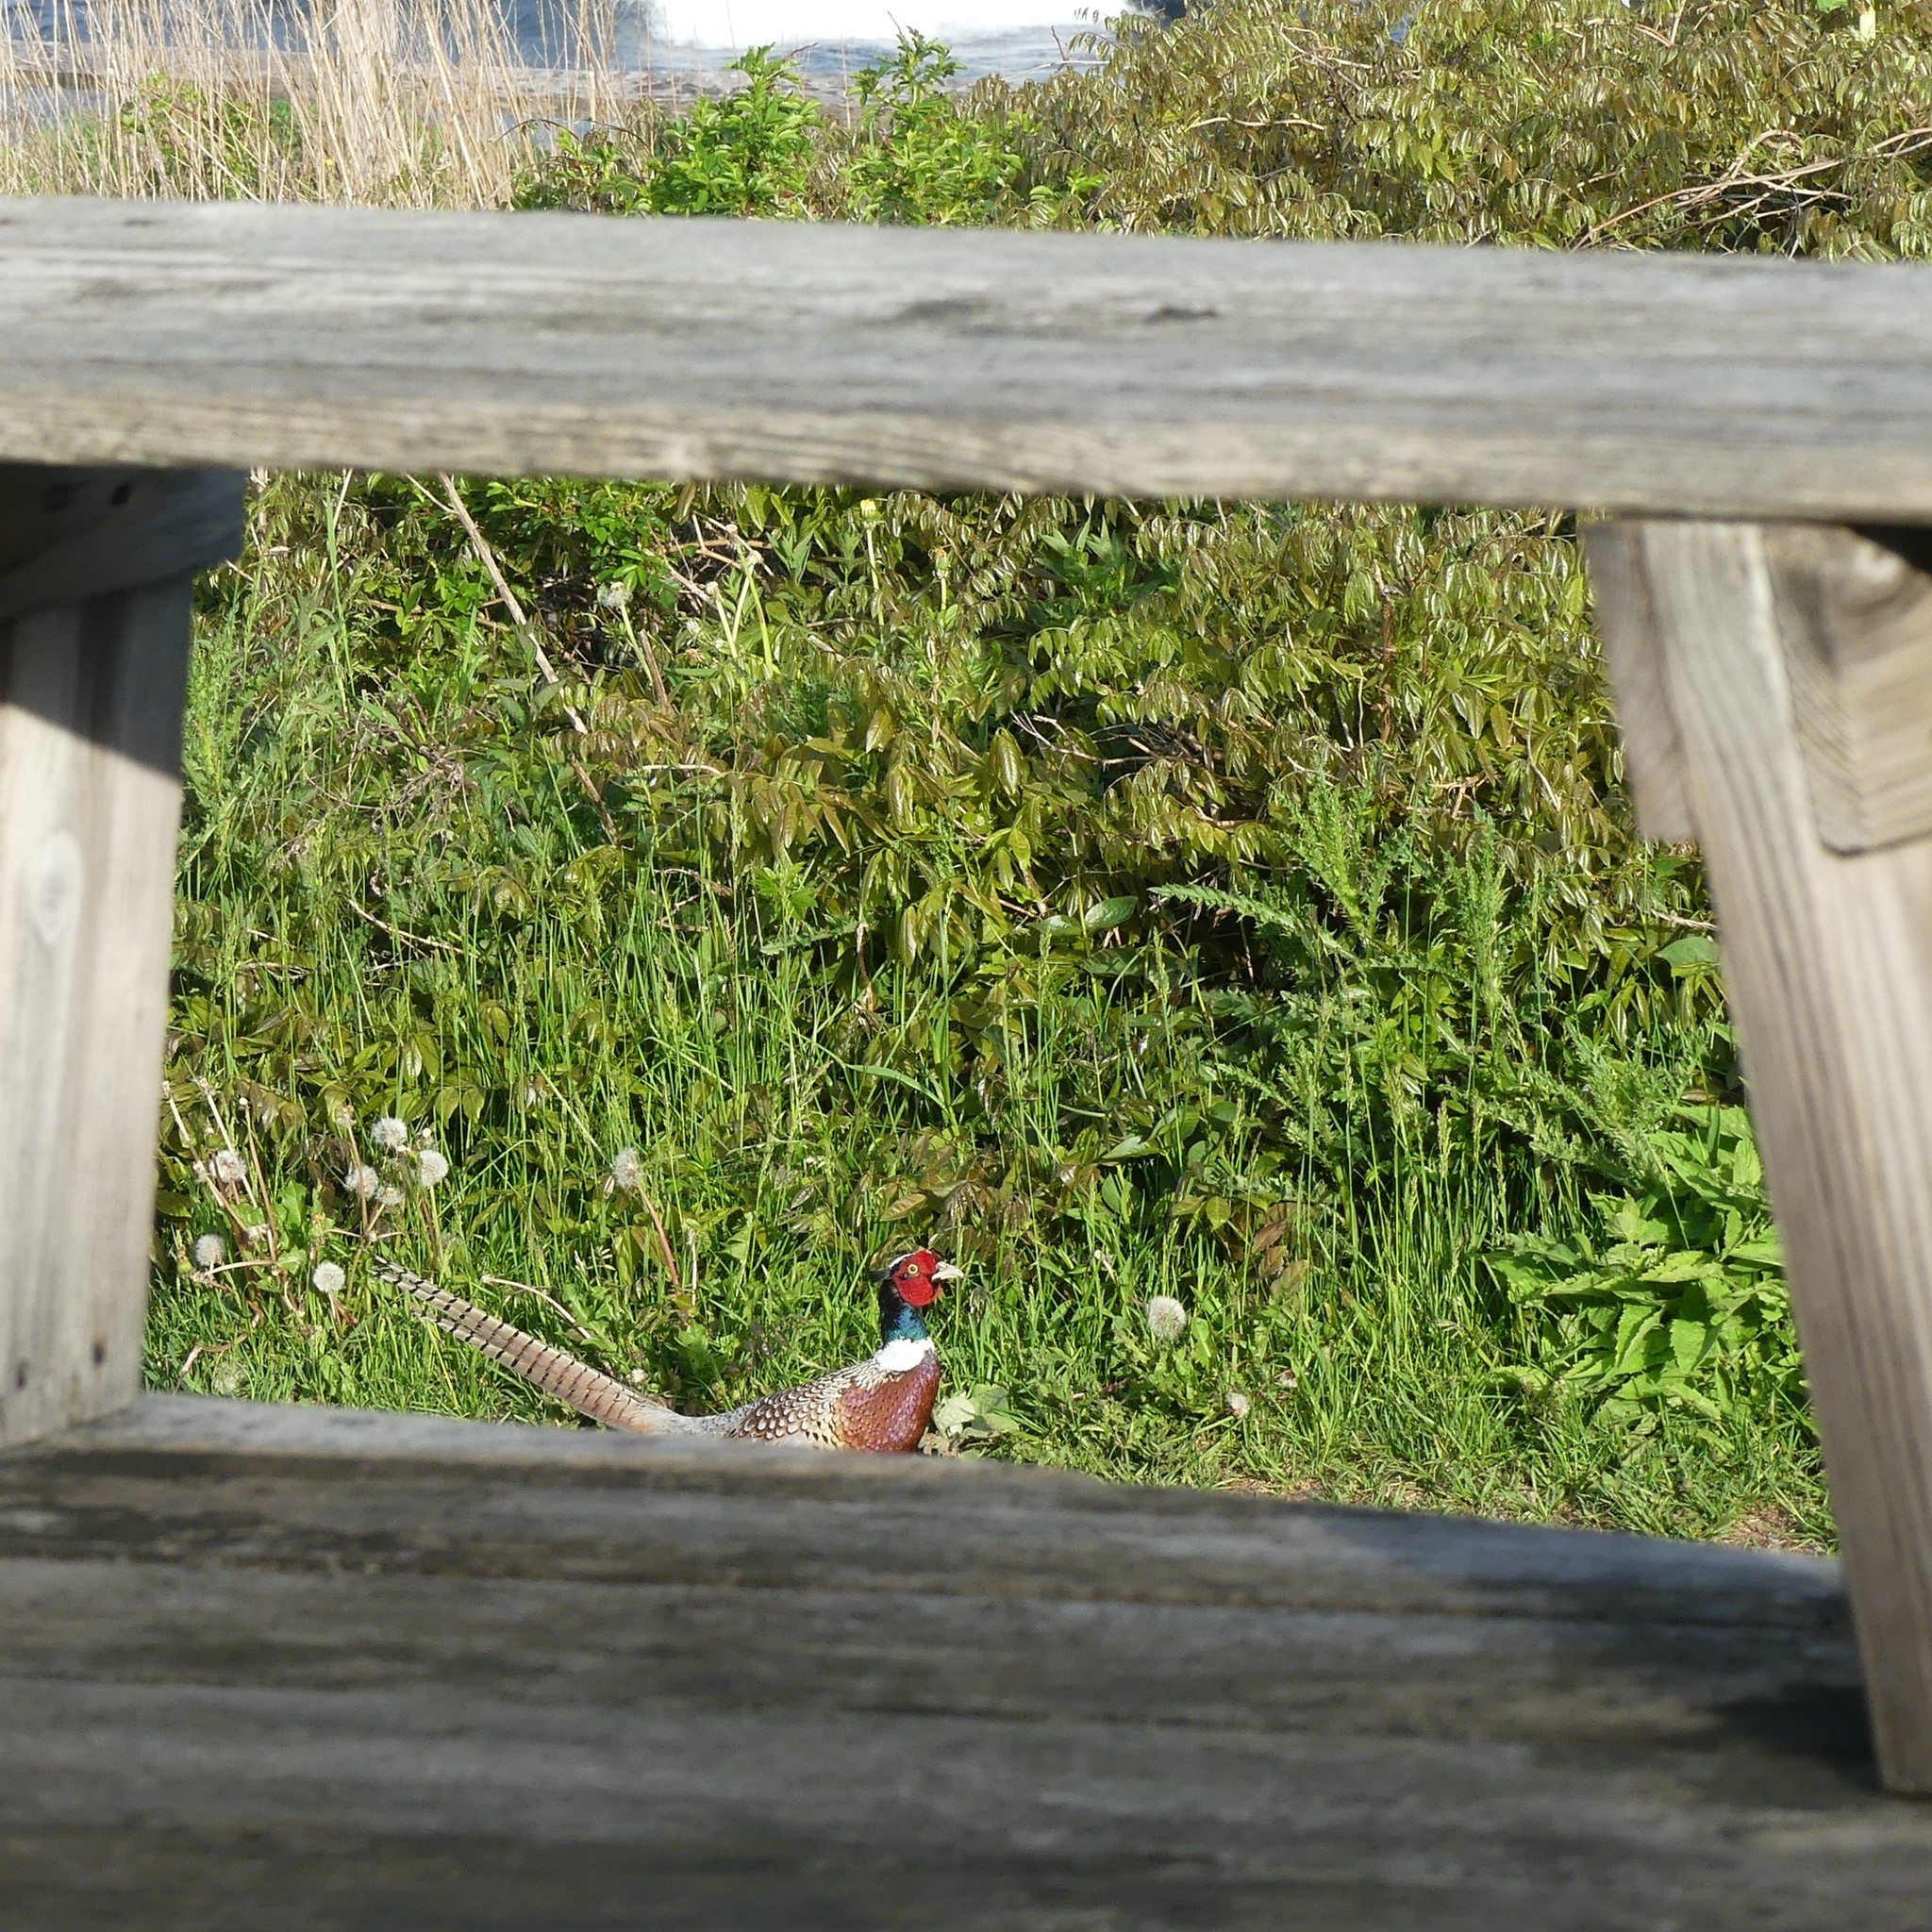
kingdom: Animalia
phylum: Chordata
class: Aves
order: Galliformes
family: Phasianidae
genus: Phasianus
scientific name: Phasianus colchicus
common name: Common pheasant
